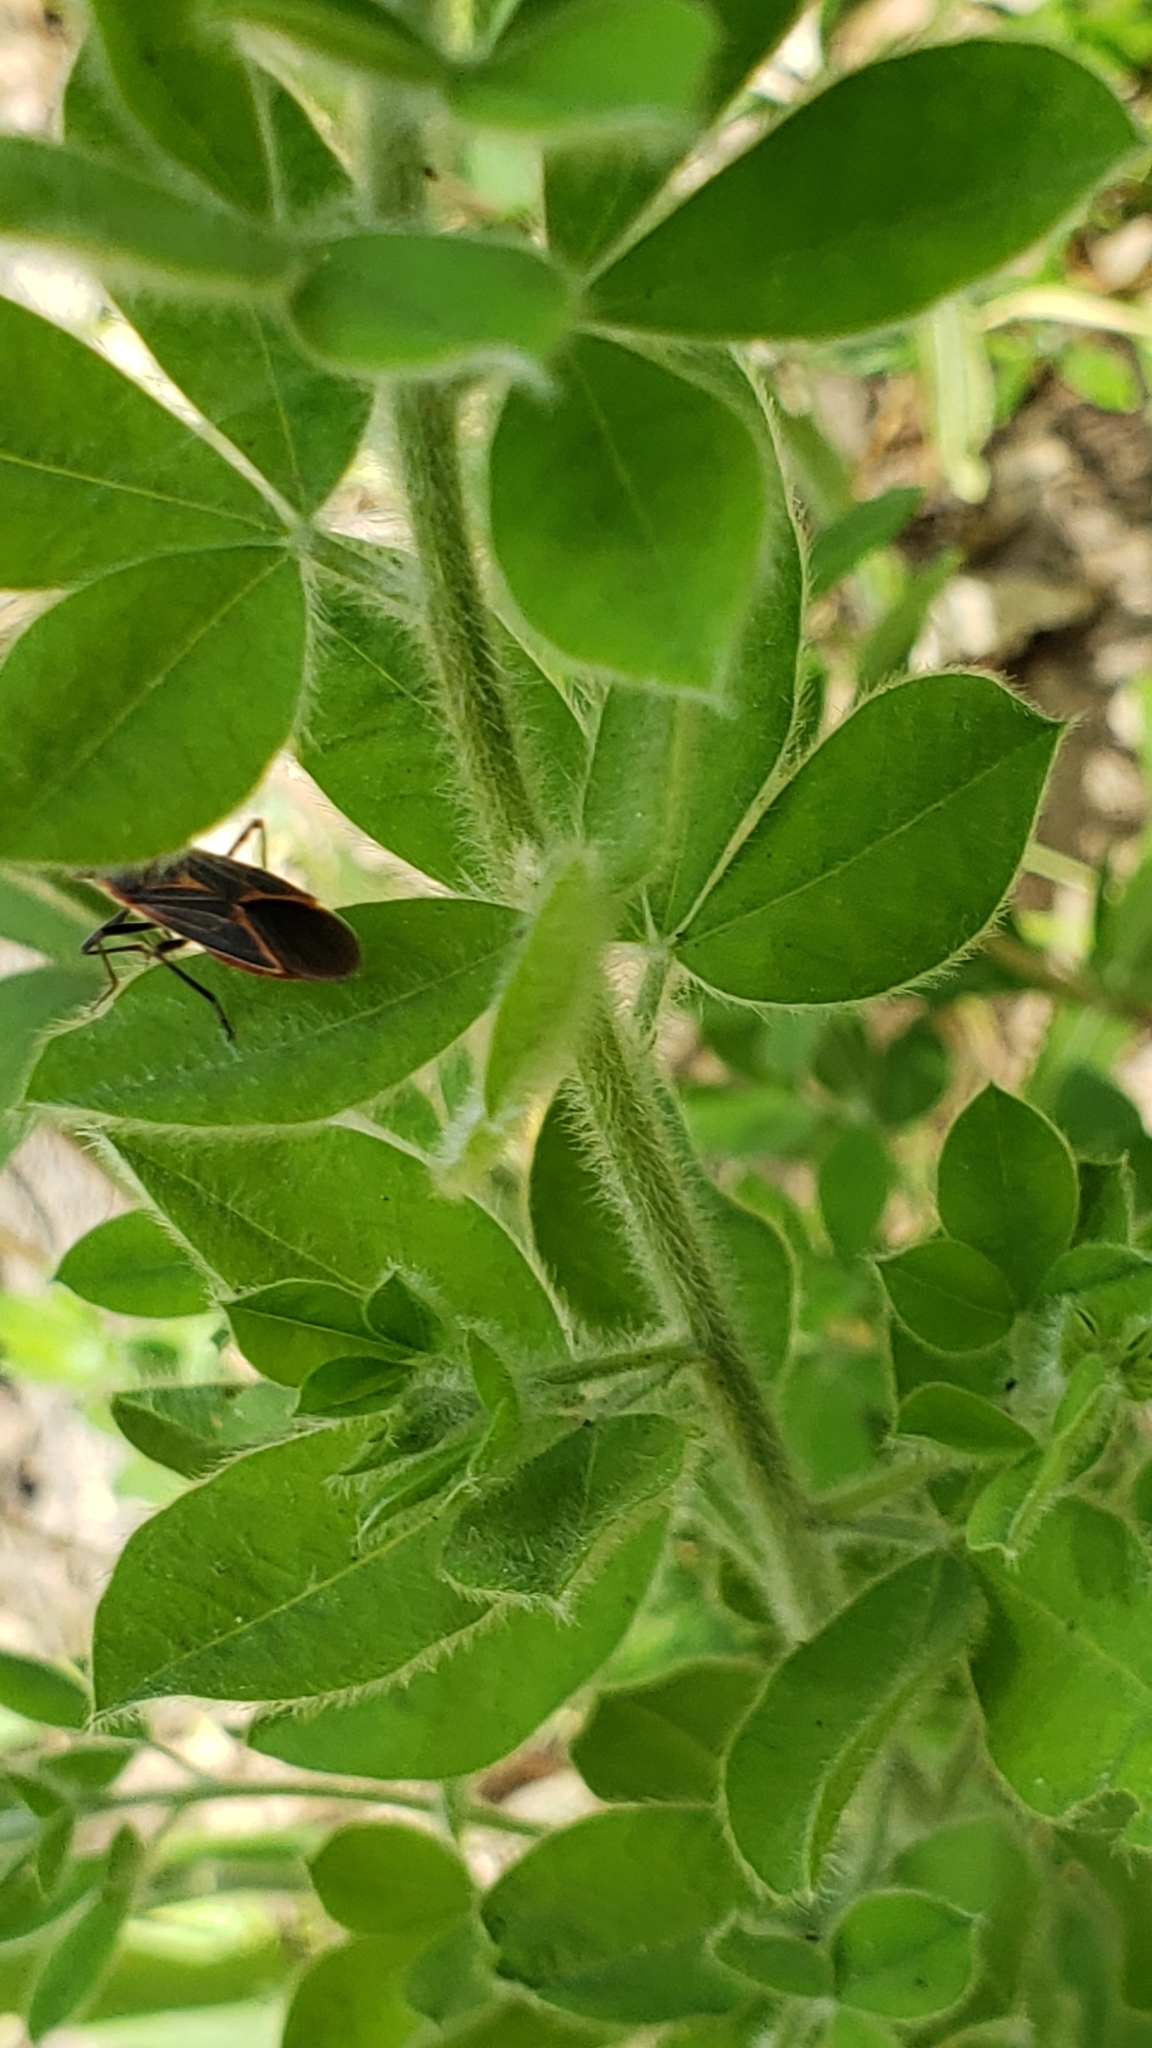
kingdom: Animalia
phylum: Arthropoda
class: Insecta
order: Hemiptera
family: Rhopalidae
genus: Boisea
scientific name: Boisea rubrolineata
